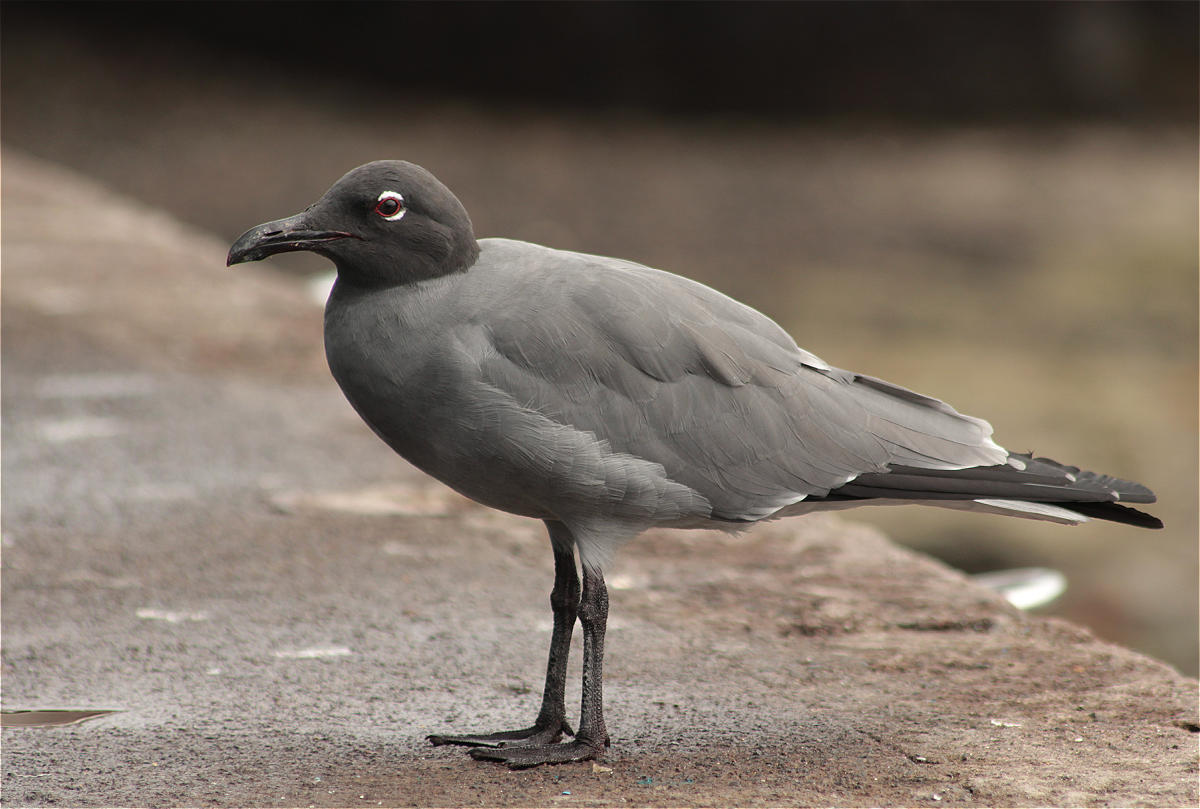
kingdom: Animalia
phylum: Chordata
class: Aves
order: Charadriiformes
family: Laridae
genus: Leucophaeus
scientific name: Leucophaeus fuliginosus
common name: Lava gull
